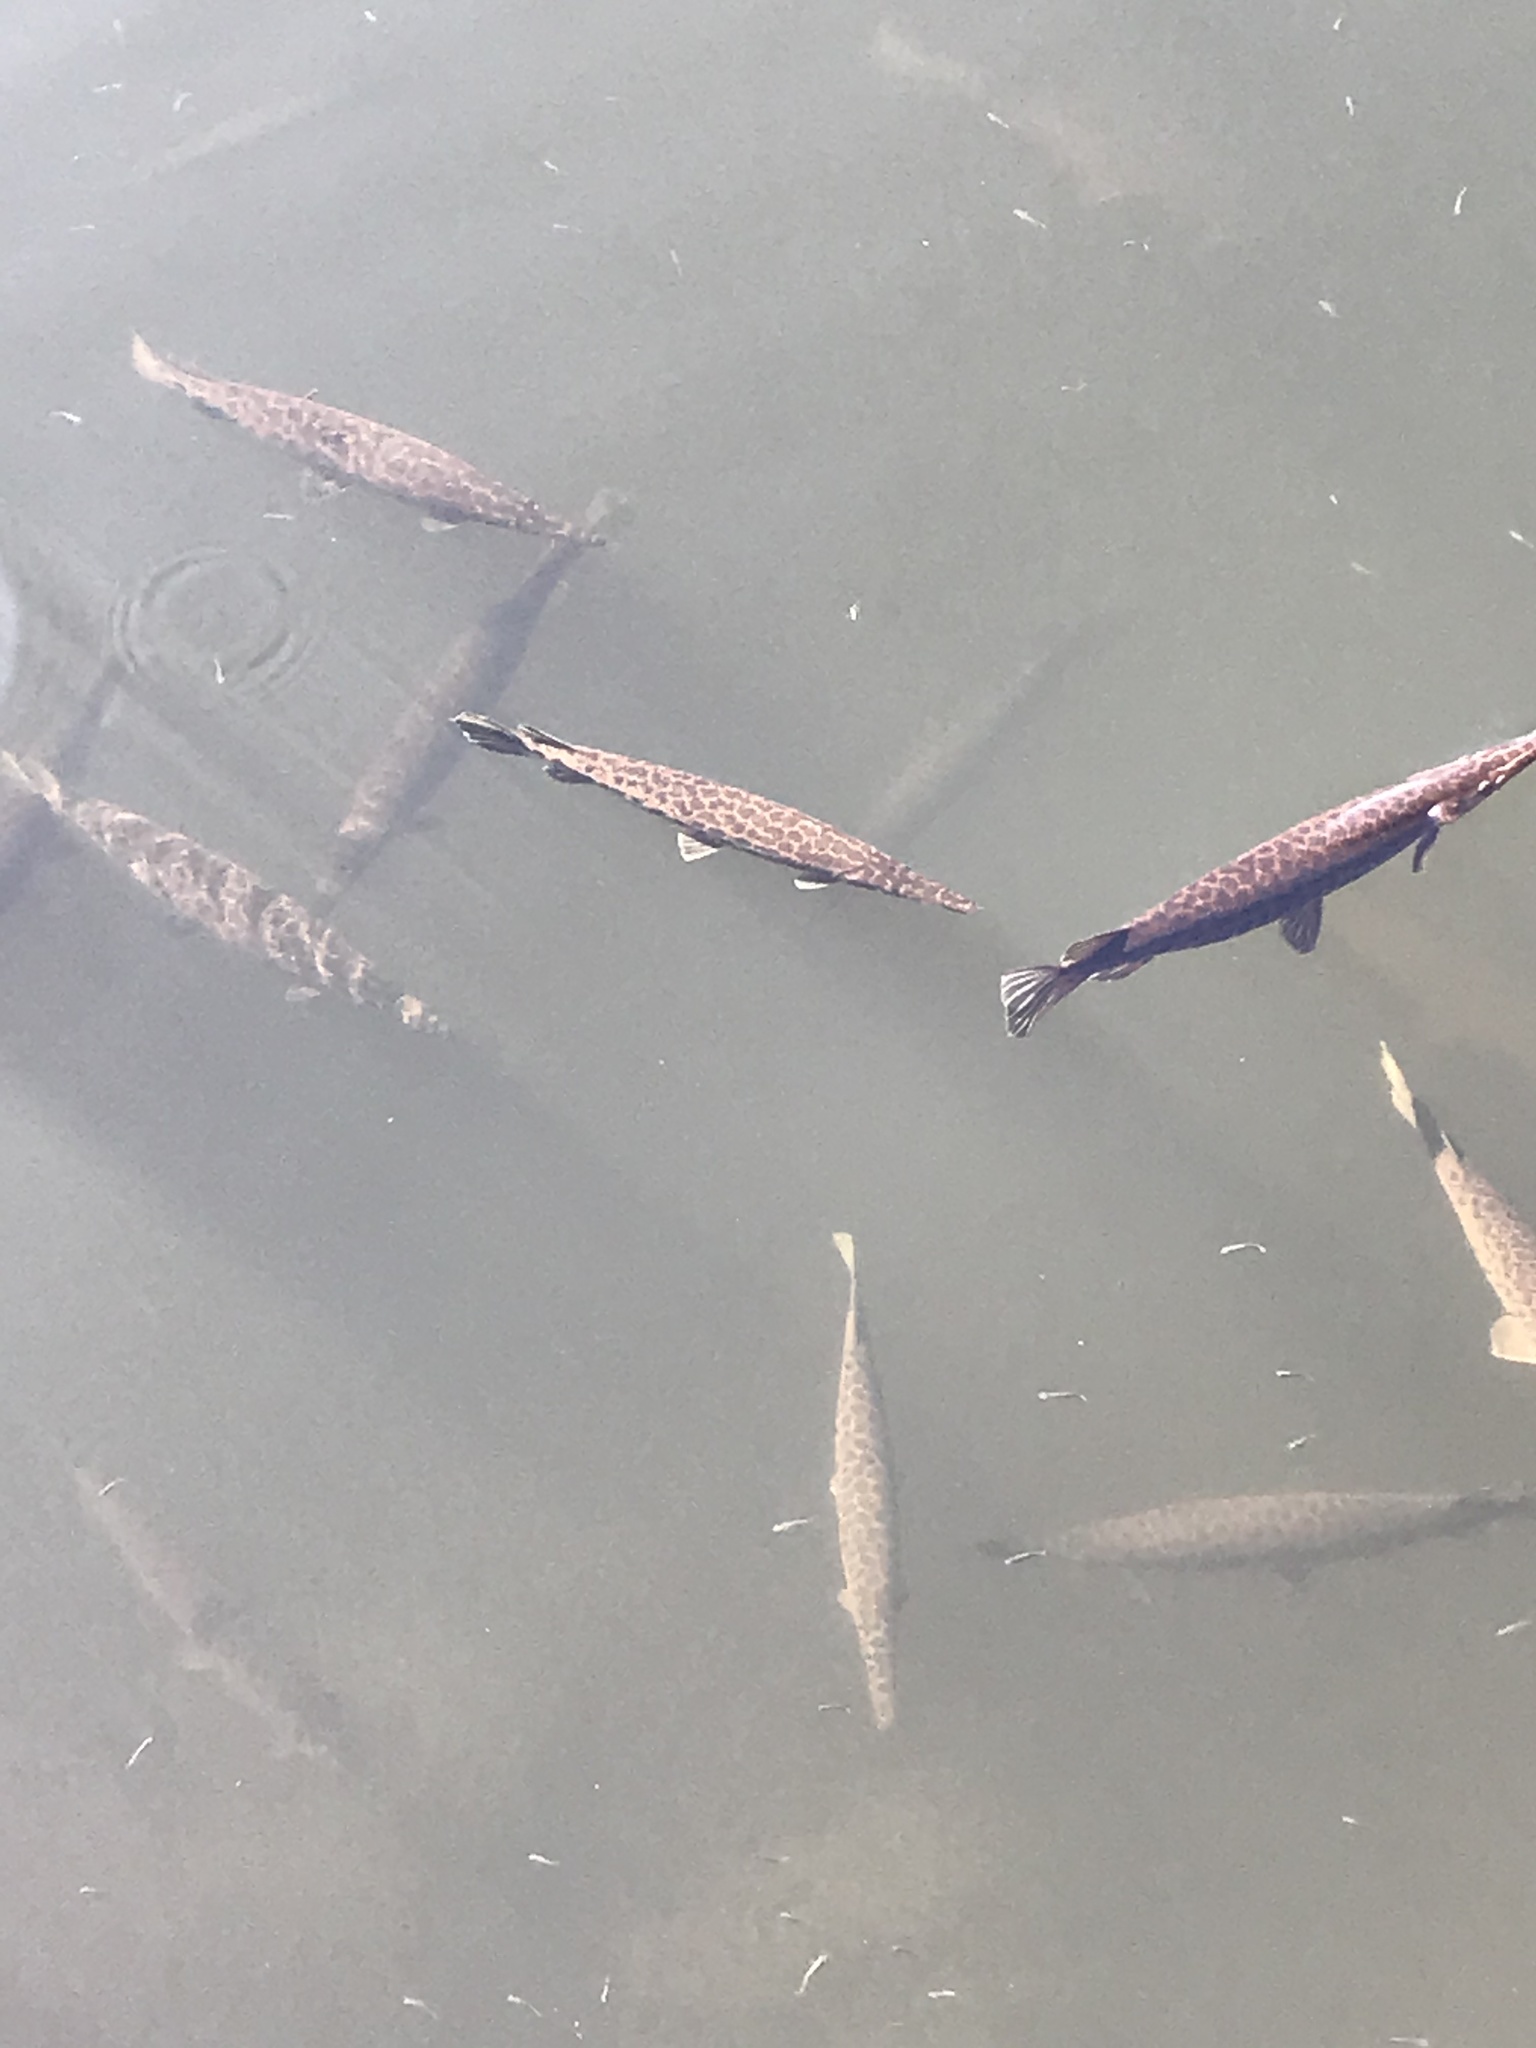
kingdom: Animalia
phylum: Chordata
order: Lepisosteiformes
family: Lepisosteidae
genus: Lepisosteus
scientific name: Lepisosteus platyrhincus
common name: Florida gar
